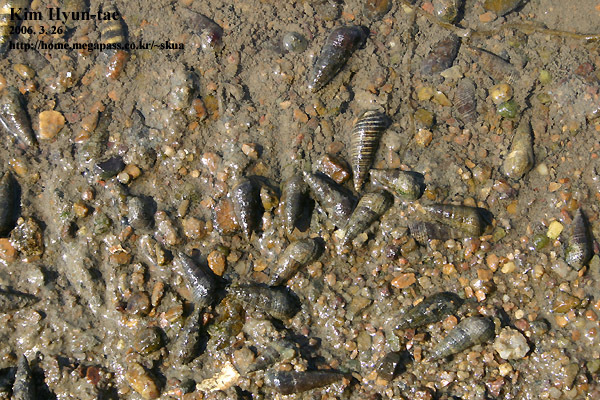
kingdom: Animalia
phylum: Mollusca
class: Gastropoda
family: Batillariidae
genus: Batillaria
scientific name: Batillaria attramentaria
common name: Japanese false cerith
